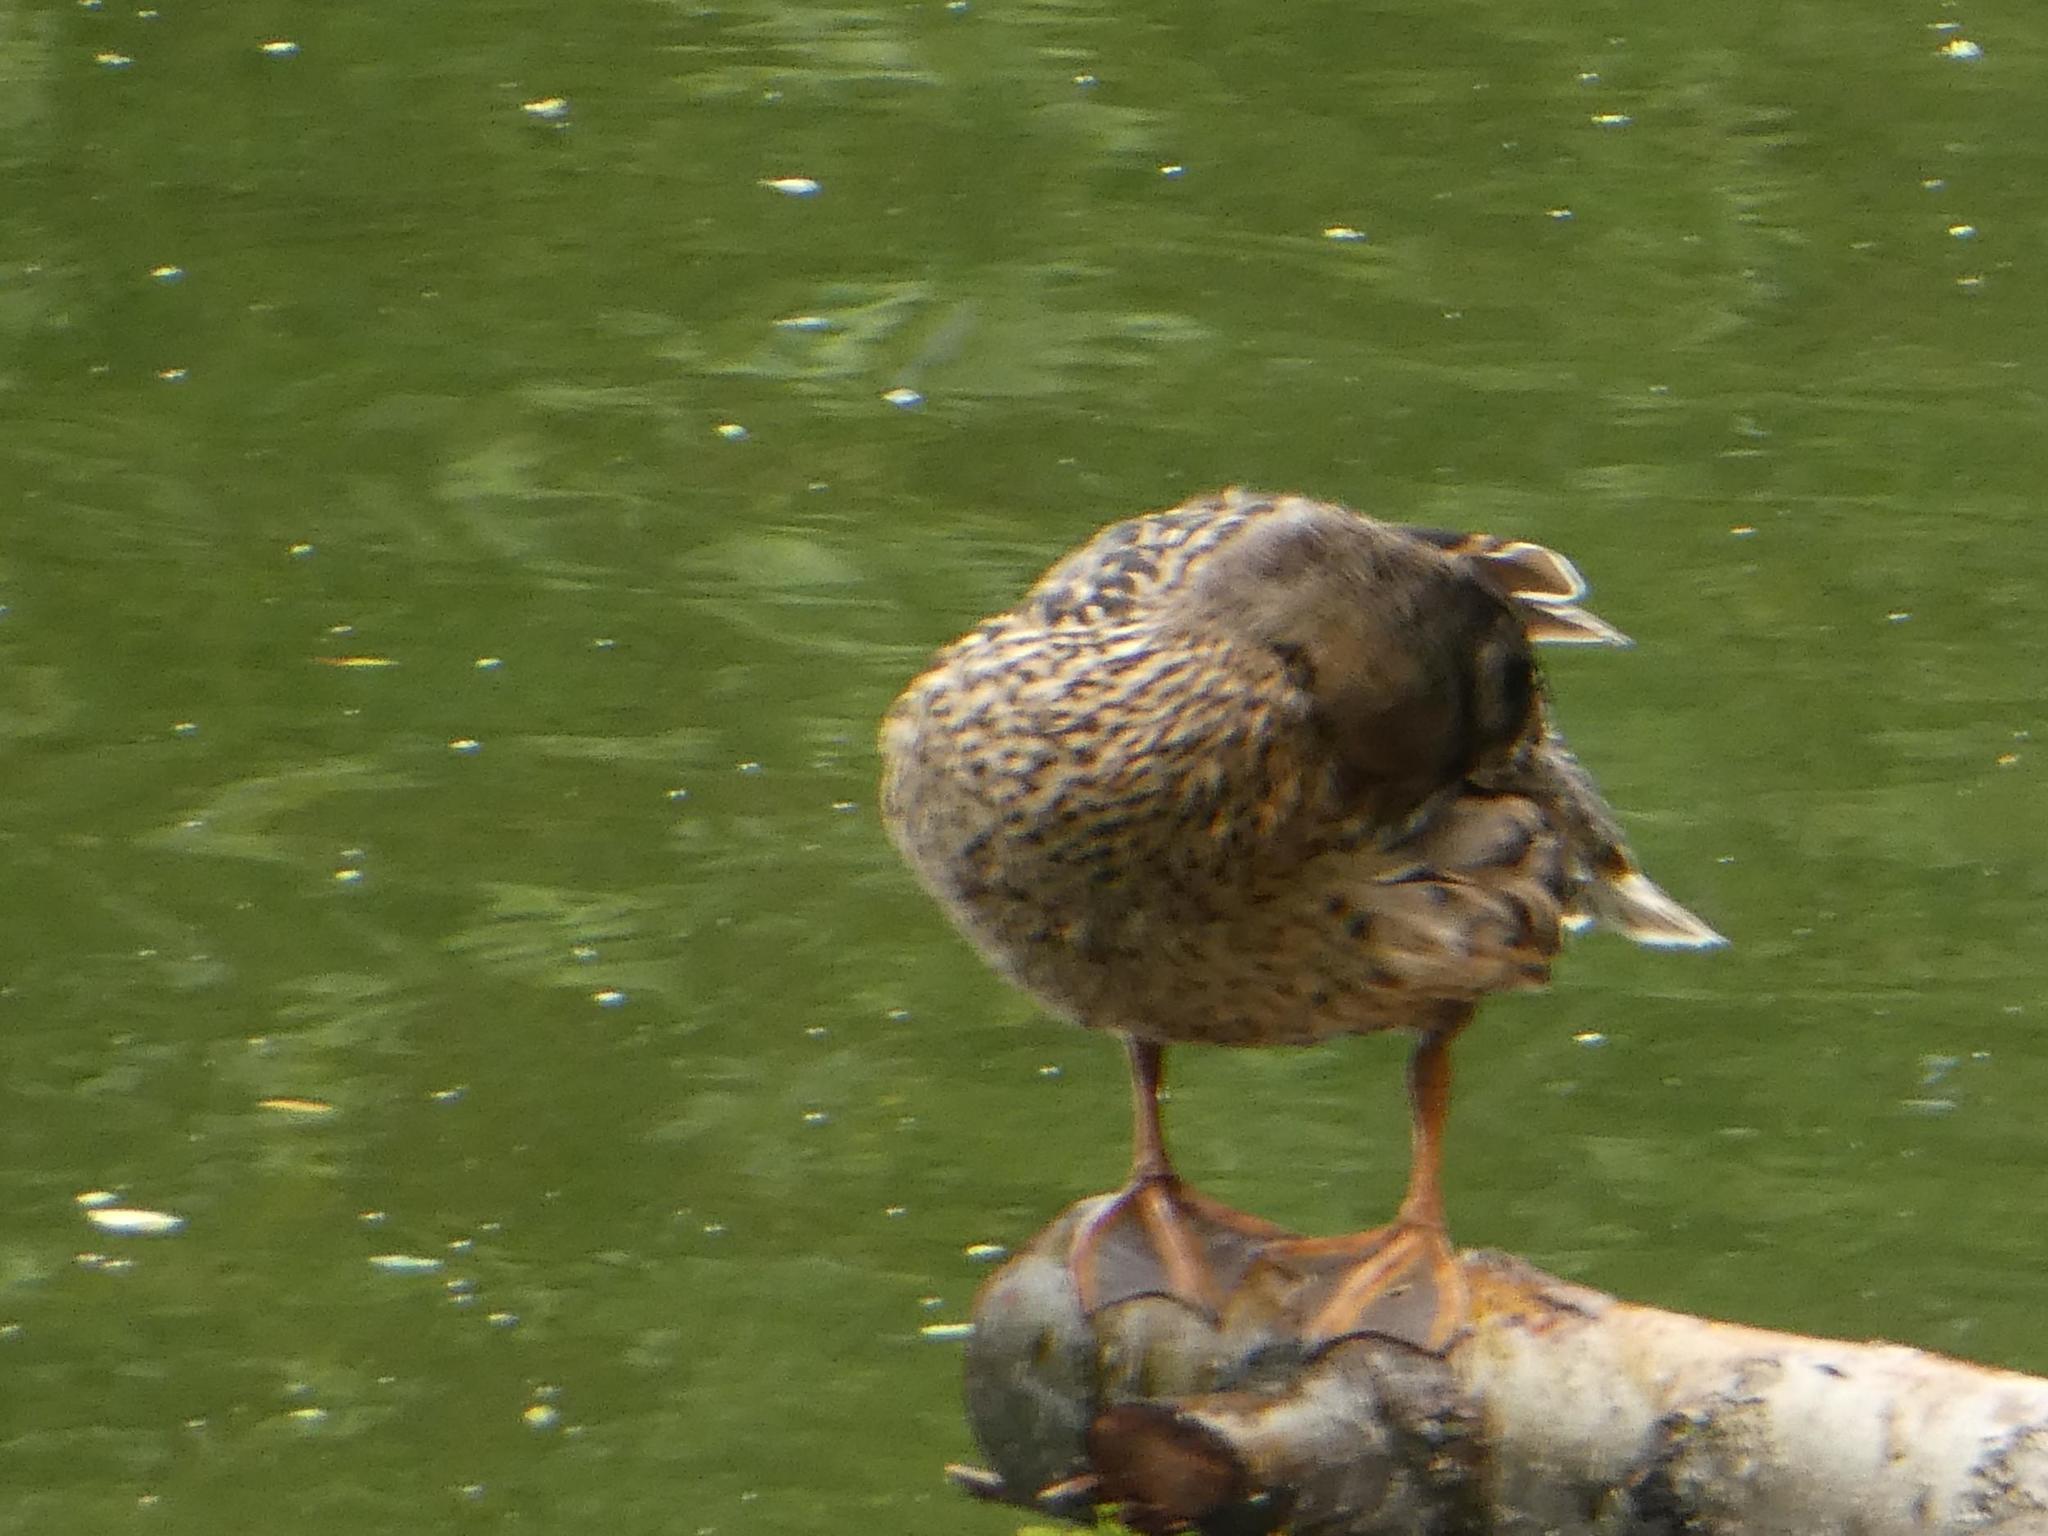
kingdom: Animalia
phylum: Chordata
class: Aves
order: Anseriformes
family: Anatidae
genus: Anas
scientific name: Anas platyrhynchos
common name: Mallard
